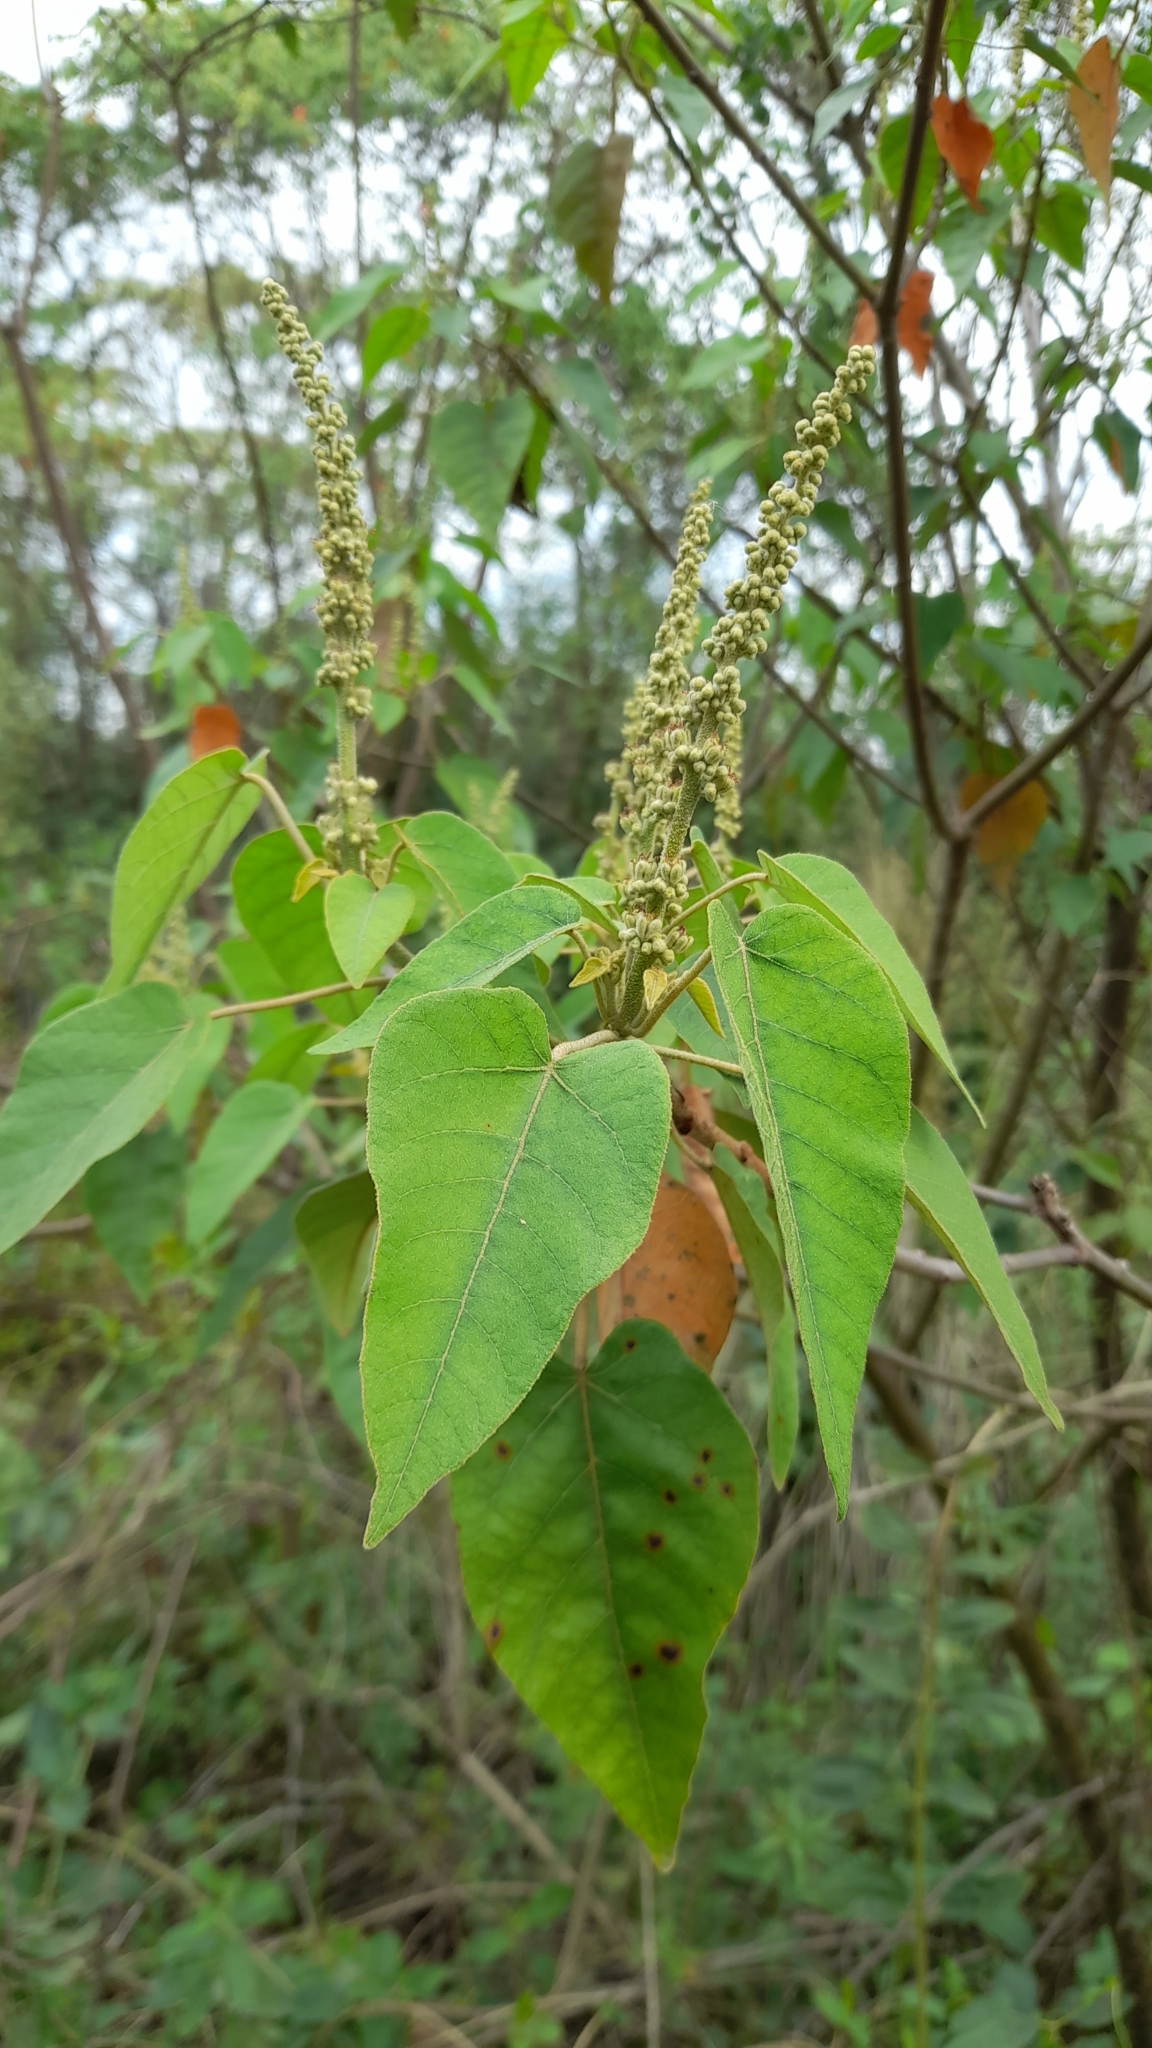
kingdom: Plantae
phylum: Tracheophyta
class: Magnoliopsida
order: Malpighiales
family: Euphorbiaceae
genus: Croton
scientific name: Croton urucurana
